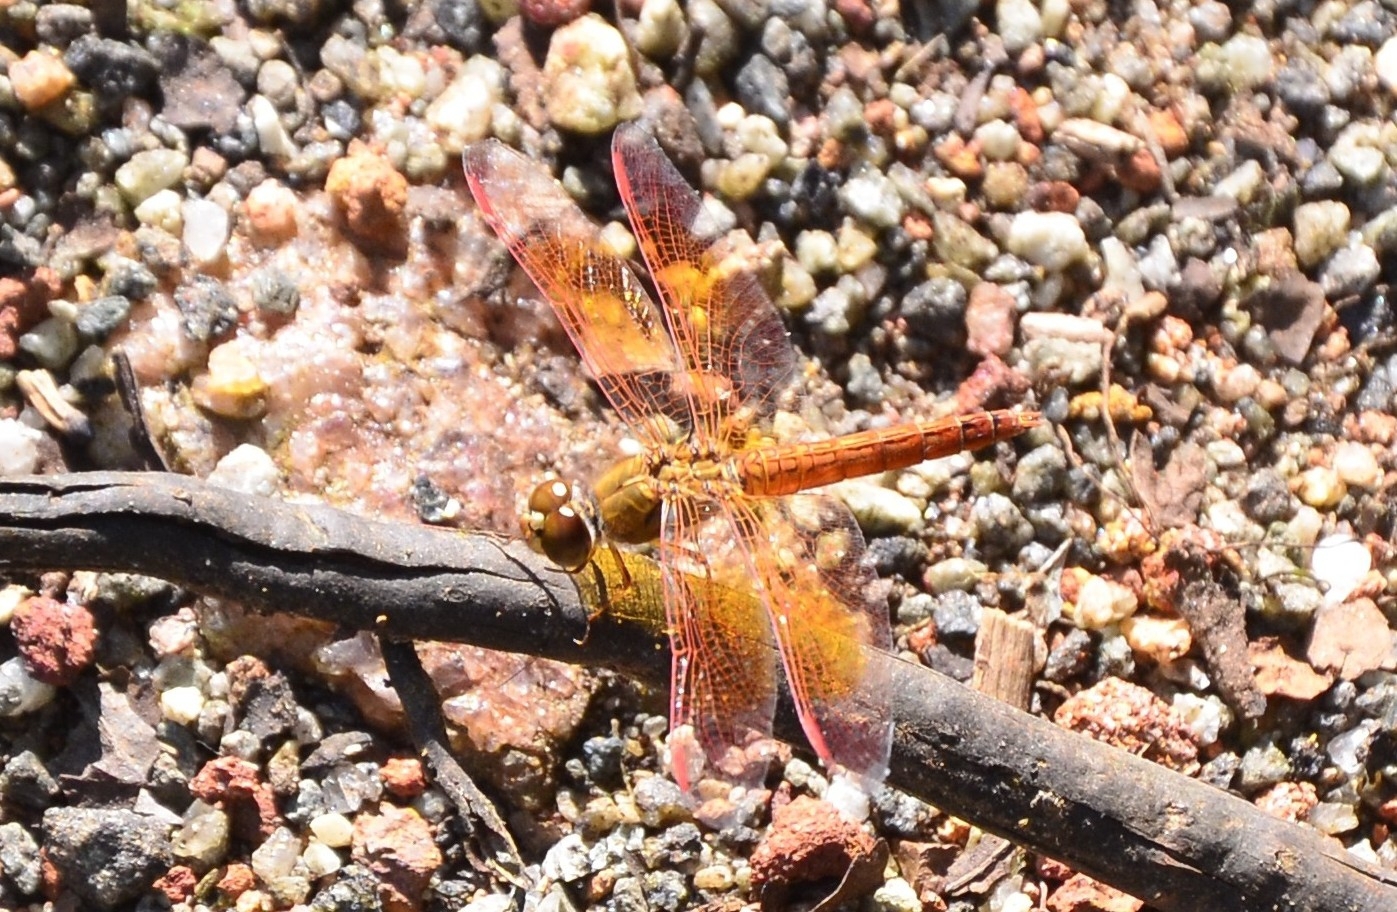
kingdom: Animalia
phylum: Arthropoda
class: Insecta
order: Odonata
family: Libellulidae
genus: Brachythemis
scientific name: Brachythemis contaminata
